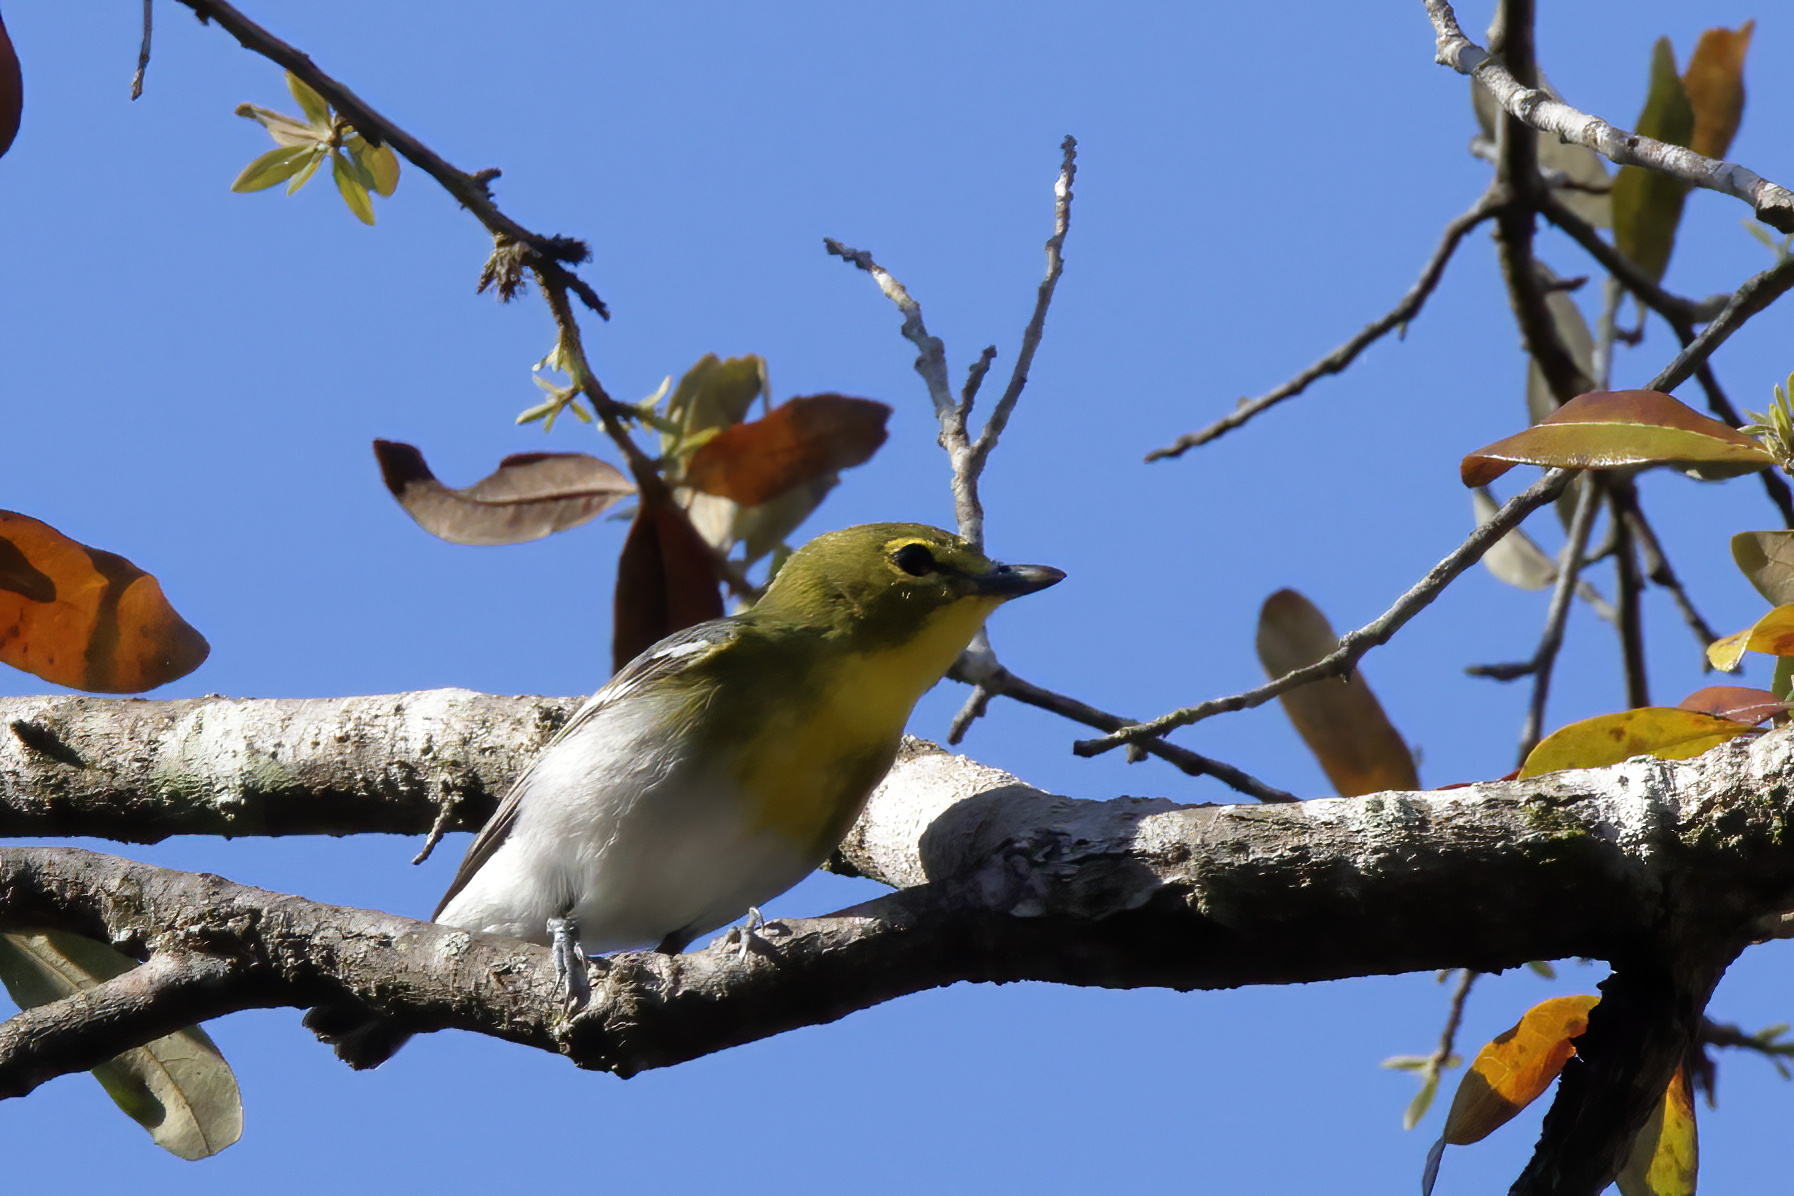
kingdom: Animalia
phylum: Chordata
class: Aves
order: Passeriformes
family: Vireonidae
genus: Vireo
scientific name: Vireo flavifrons
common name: Yellow-throated vireo
